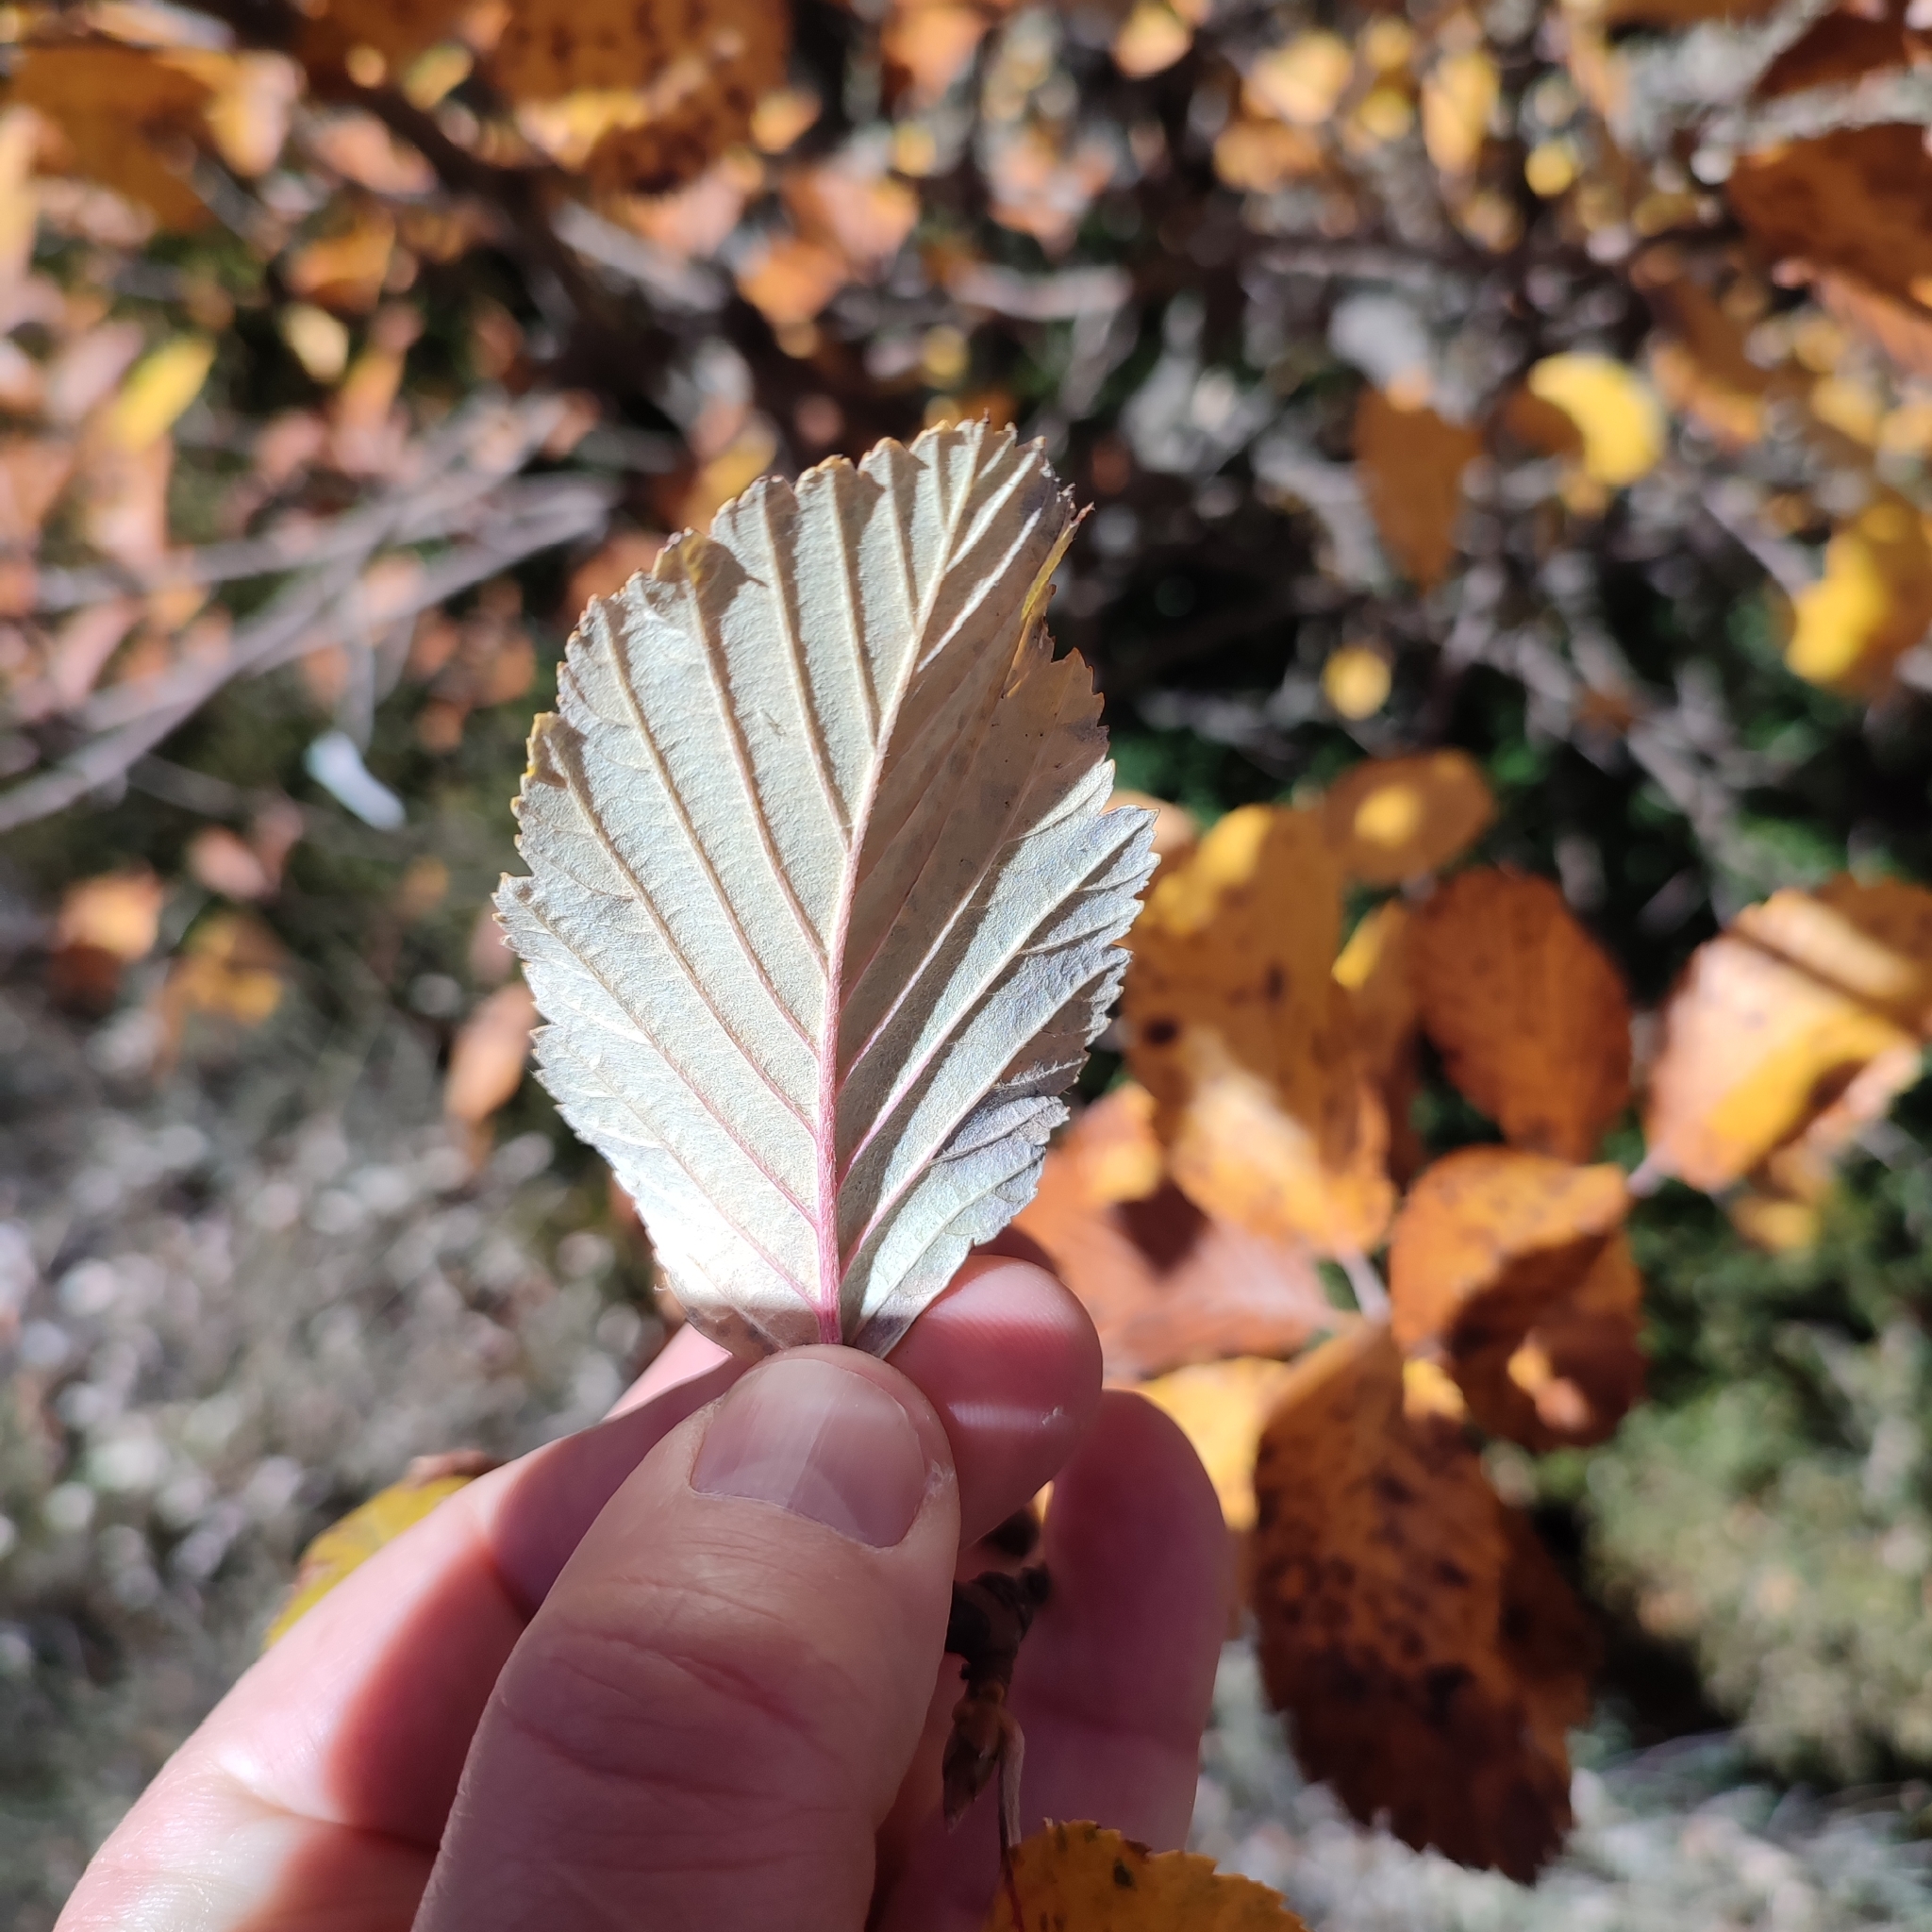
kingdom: Plantae
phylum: Tracheophyta
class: Magnoliopsida
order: Rosales
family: Rosaceae
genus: Aria
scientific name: Aria edulis
